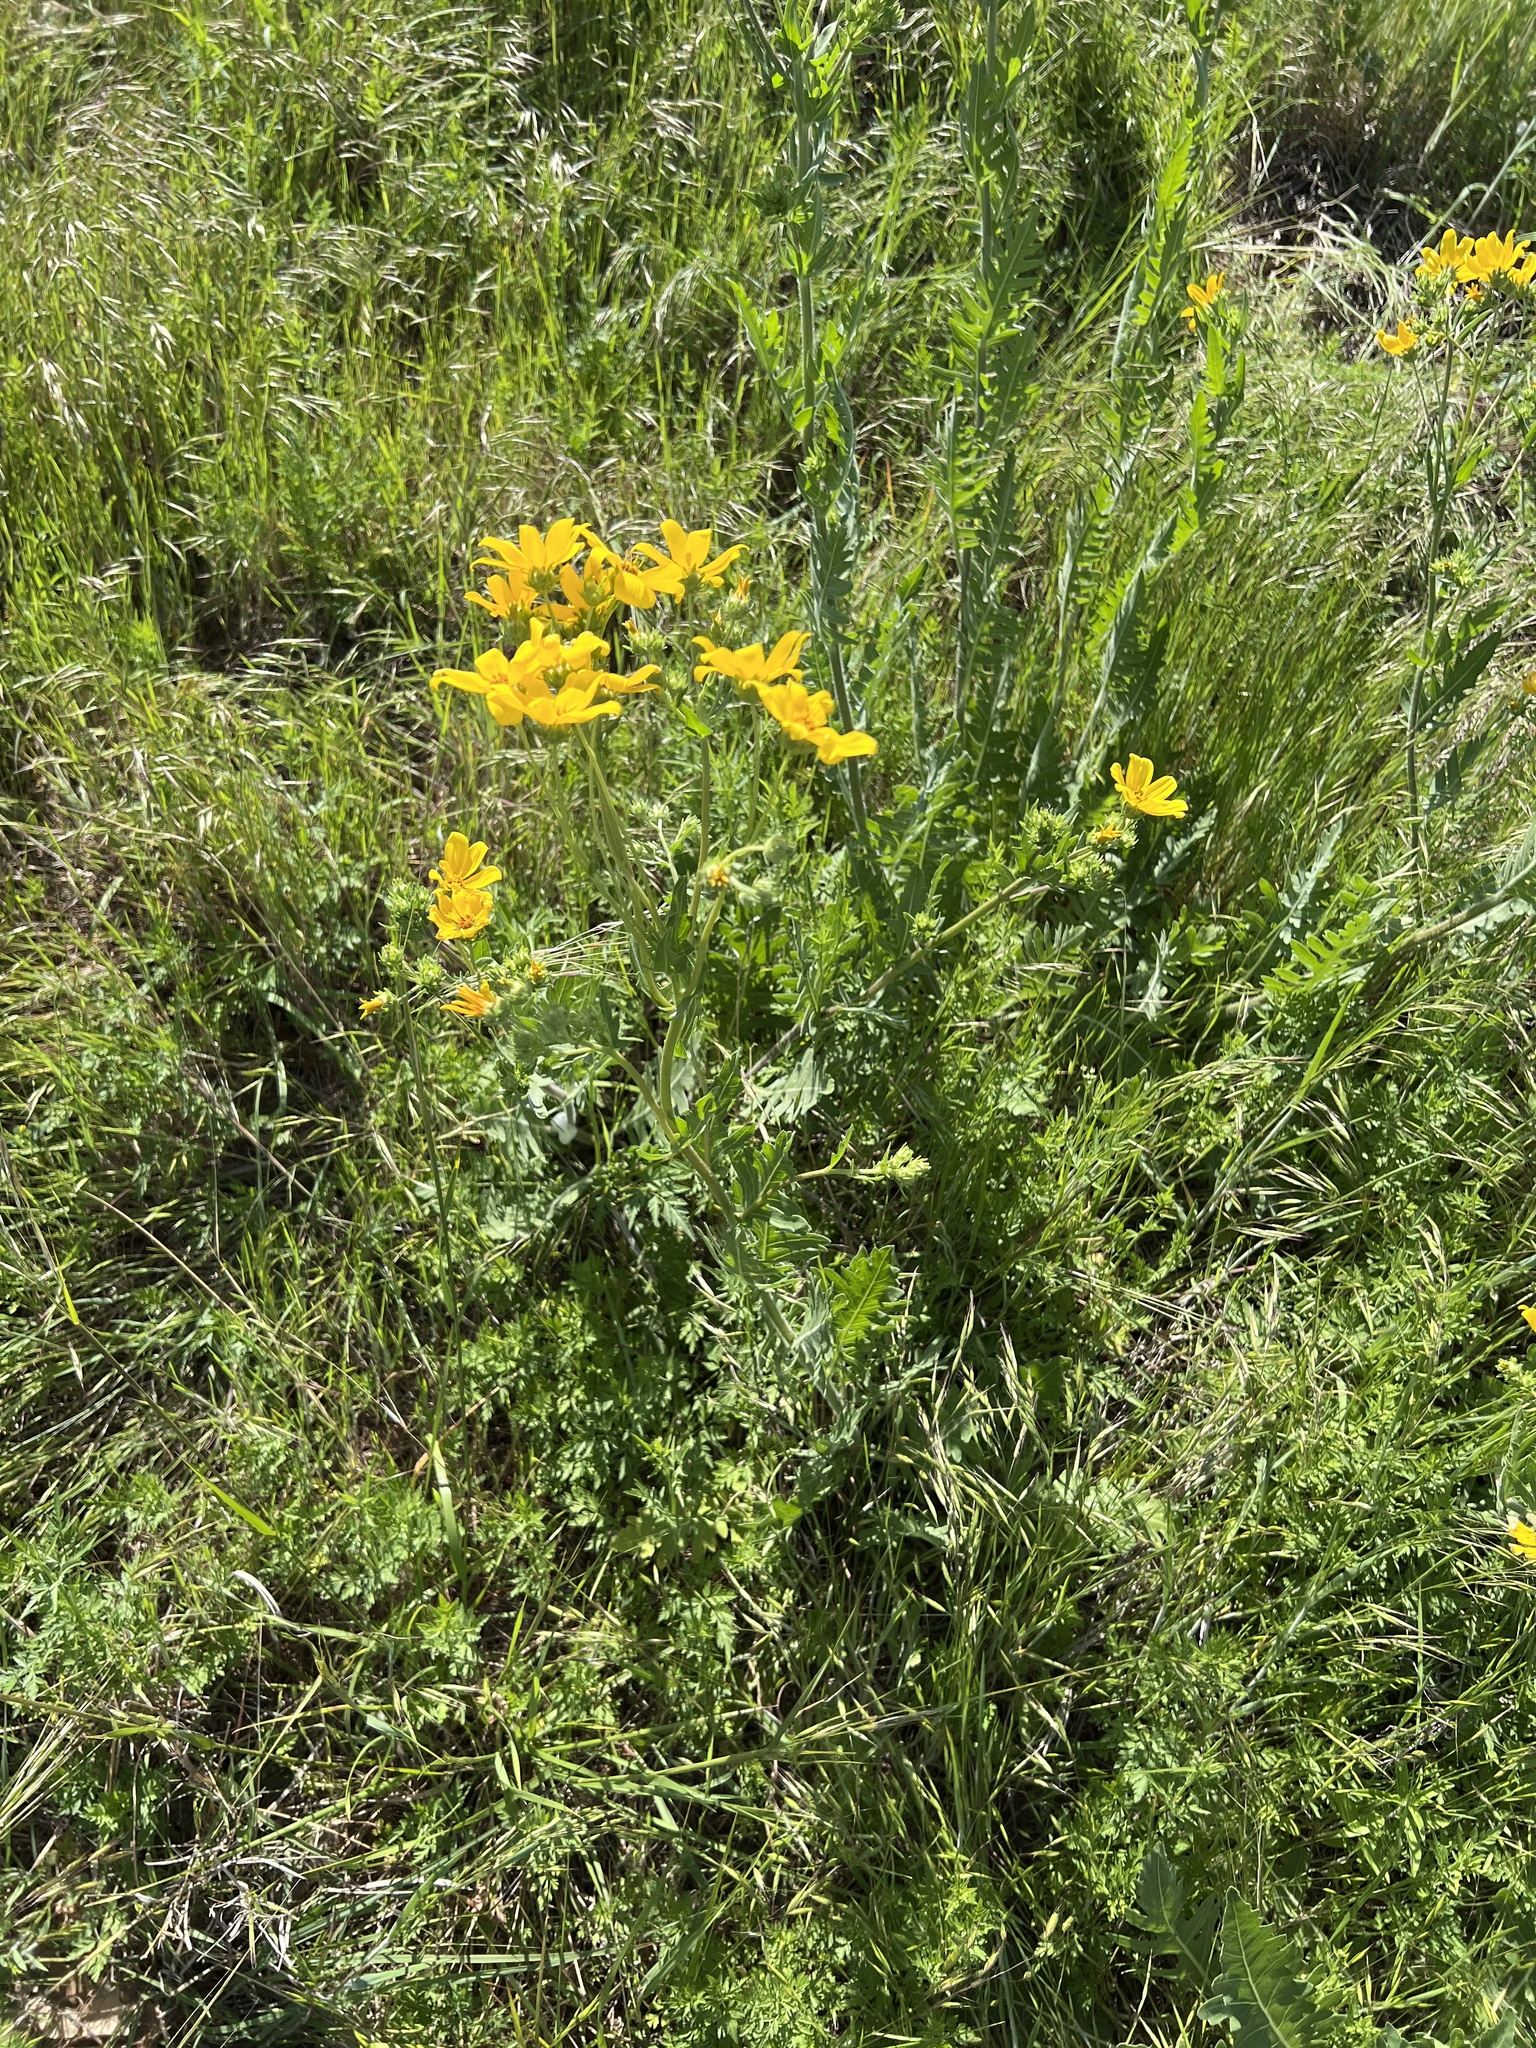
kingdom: Plantae
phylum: Tracheophyta
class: Magnoliopsida
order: Asterales
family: Asteraceae
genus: Engelmannia
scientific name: Engelmannia peristenia
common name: Engelmann's daisy
